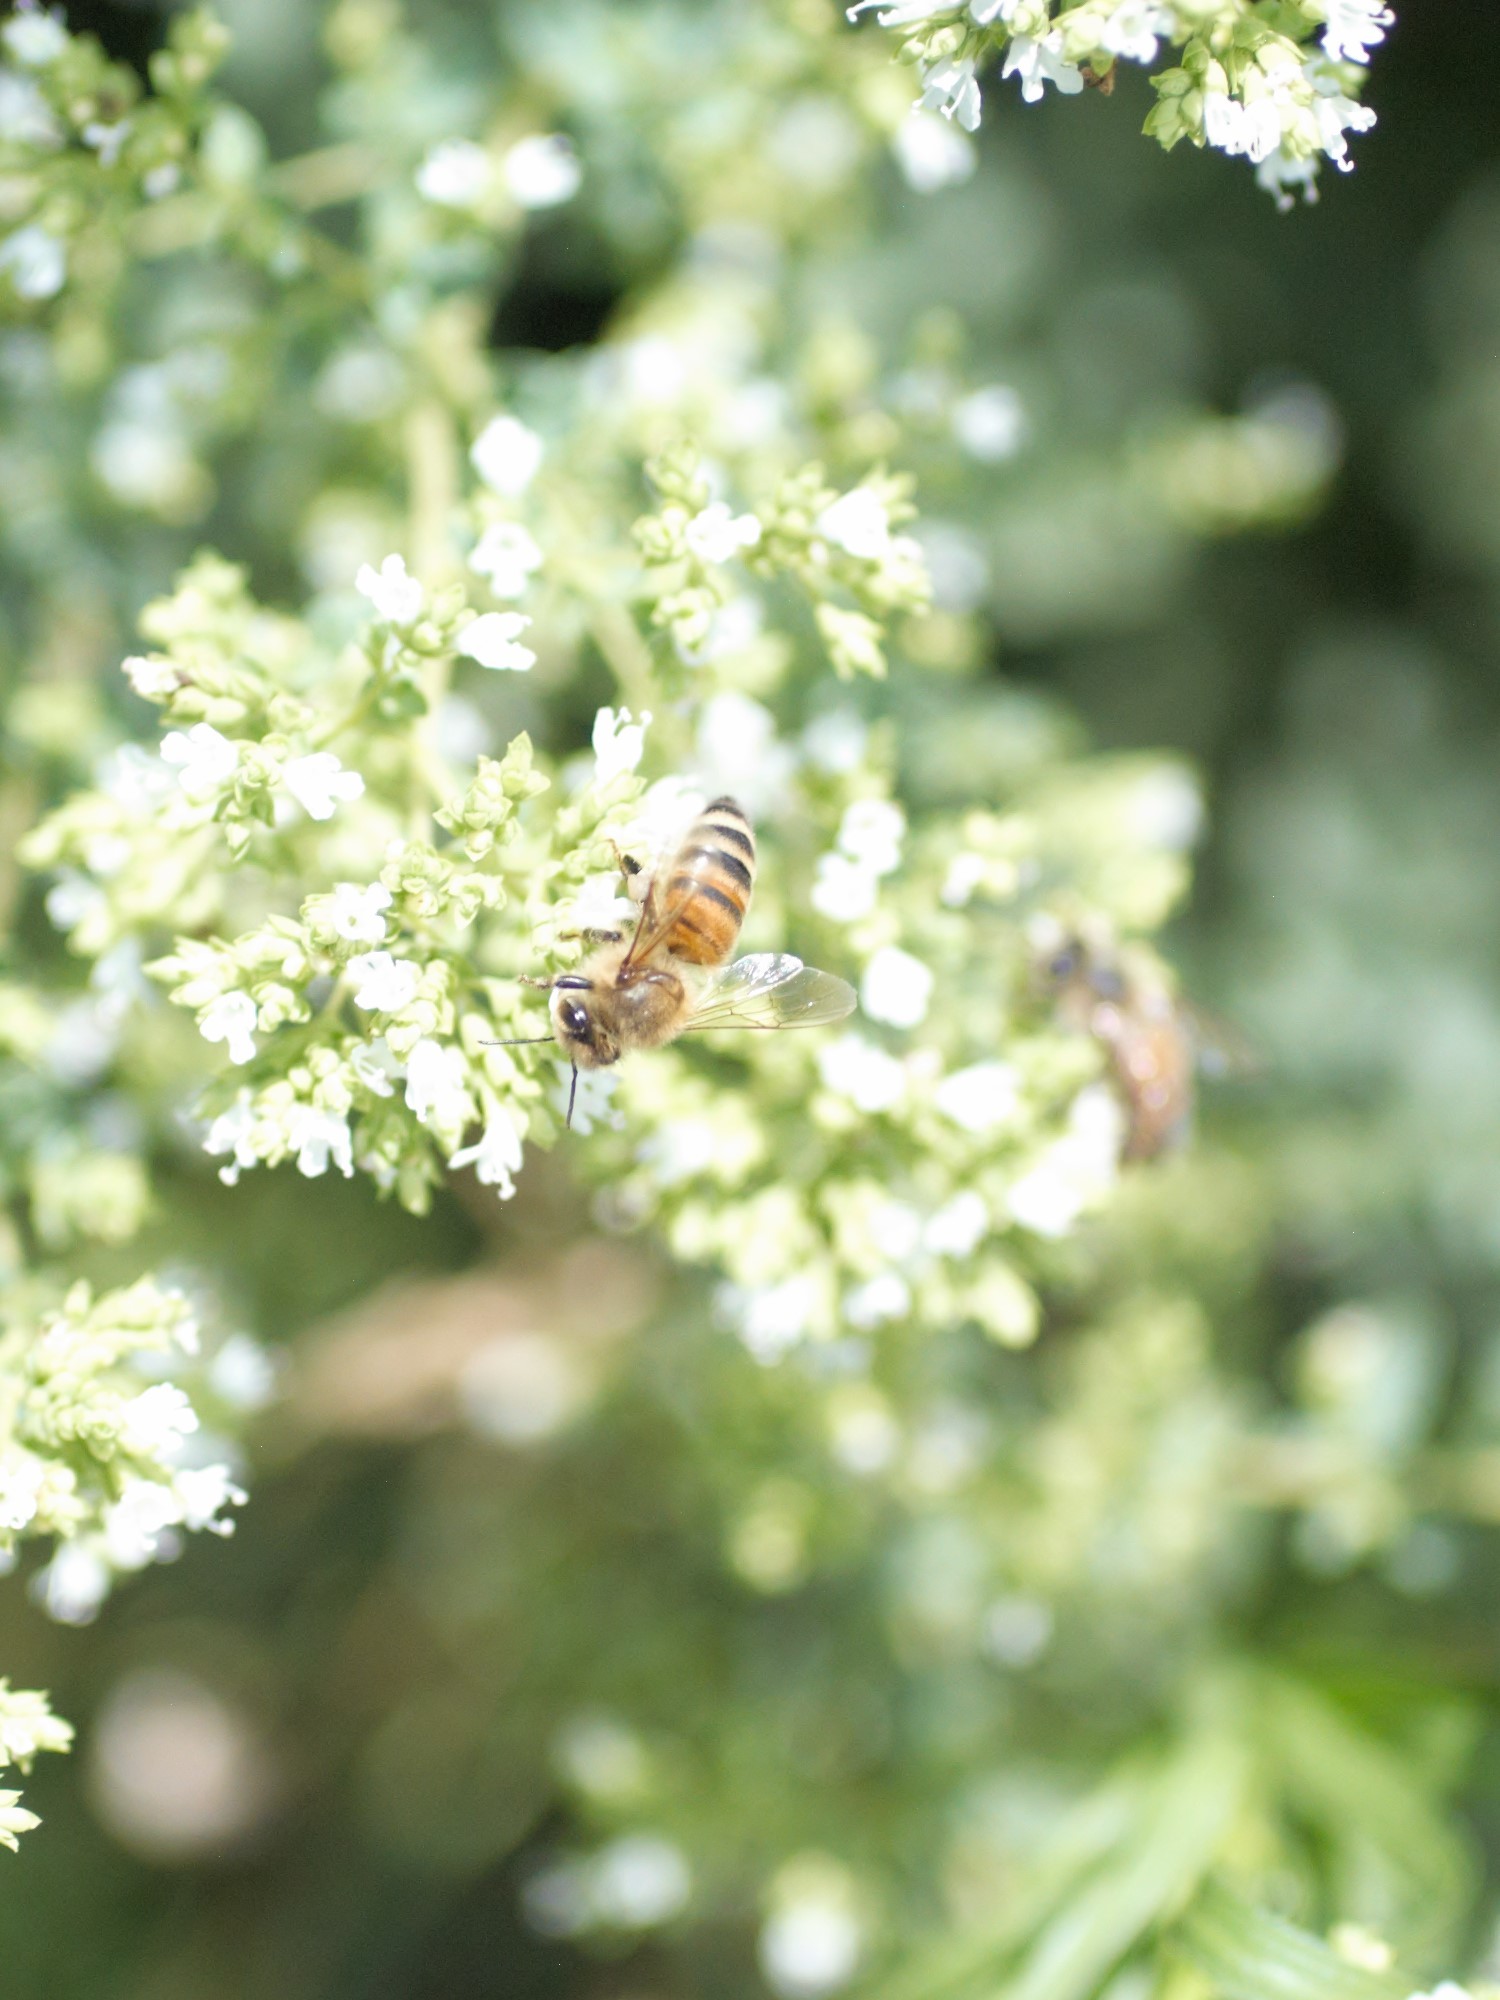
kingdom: Animalia
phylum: Arthropoda
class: Insecta
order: Hymenoptera
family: Apidae
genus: Apis
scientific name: Apis mellifera
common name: Honey bee
